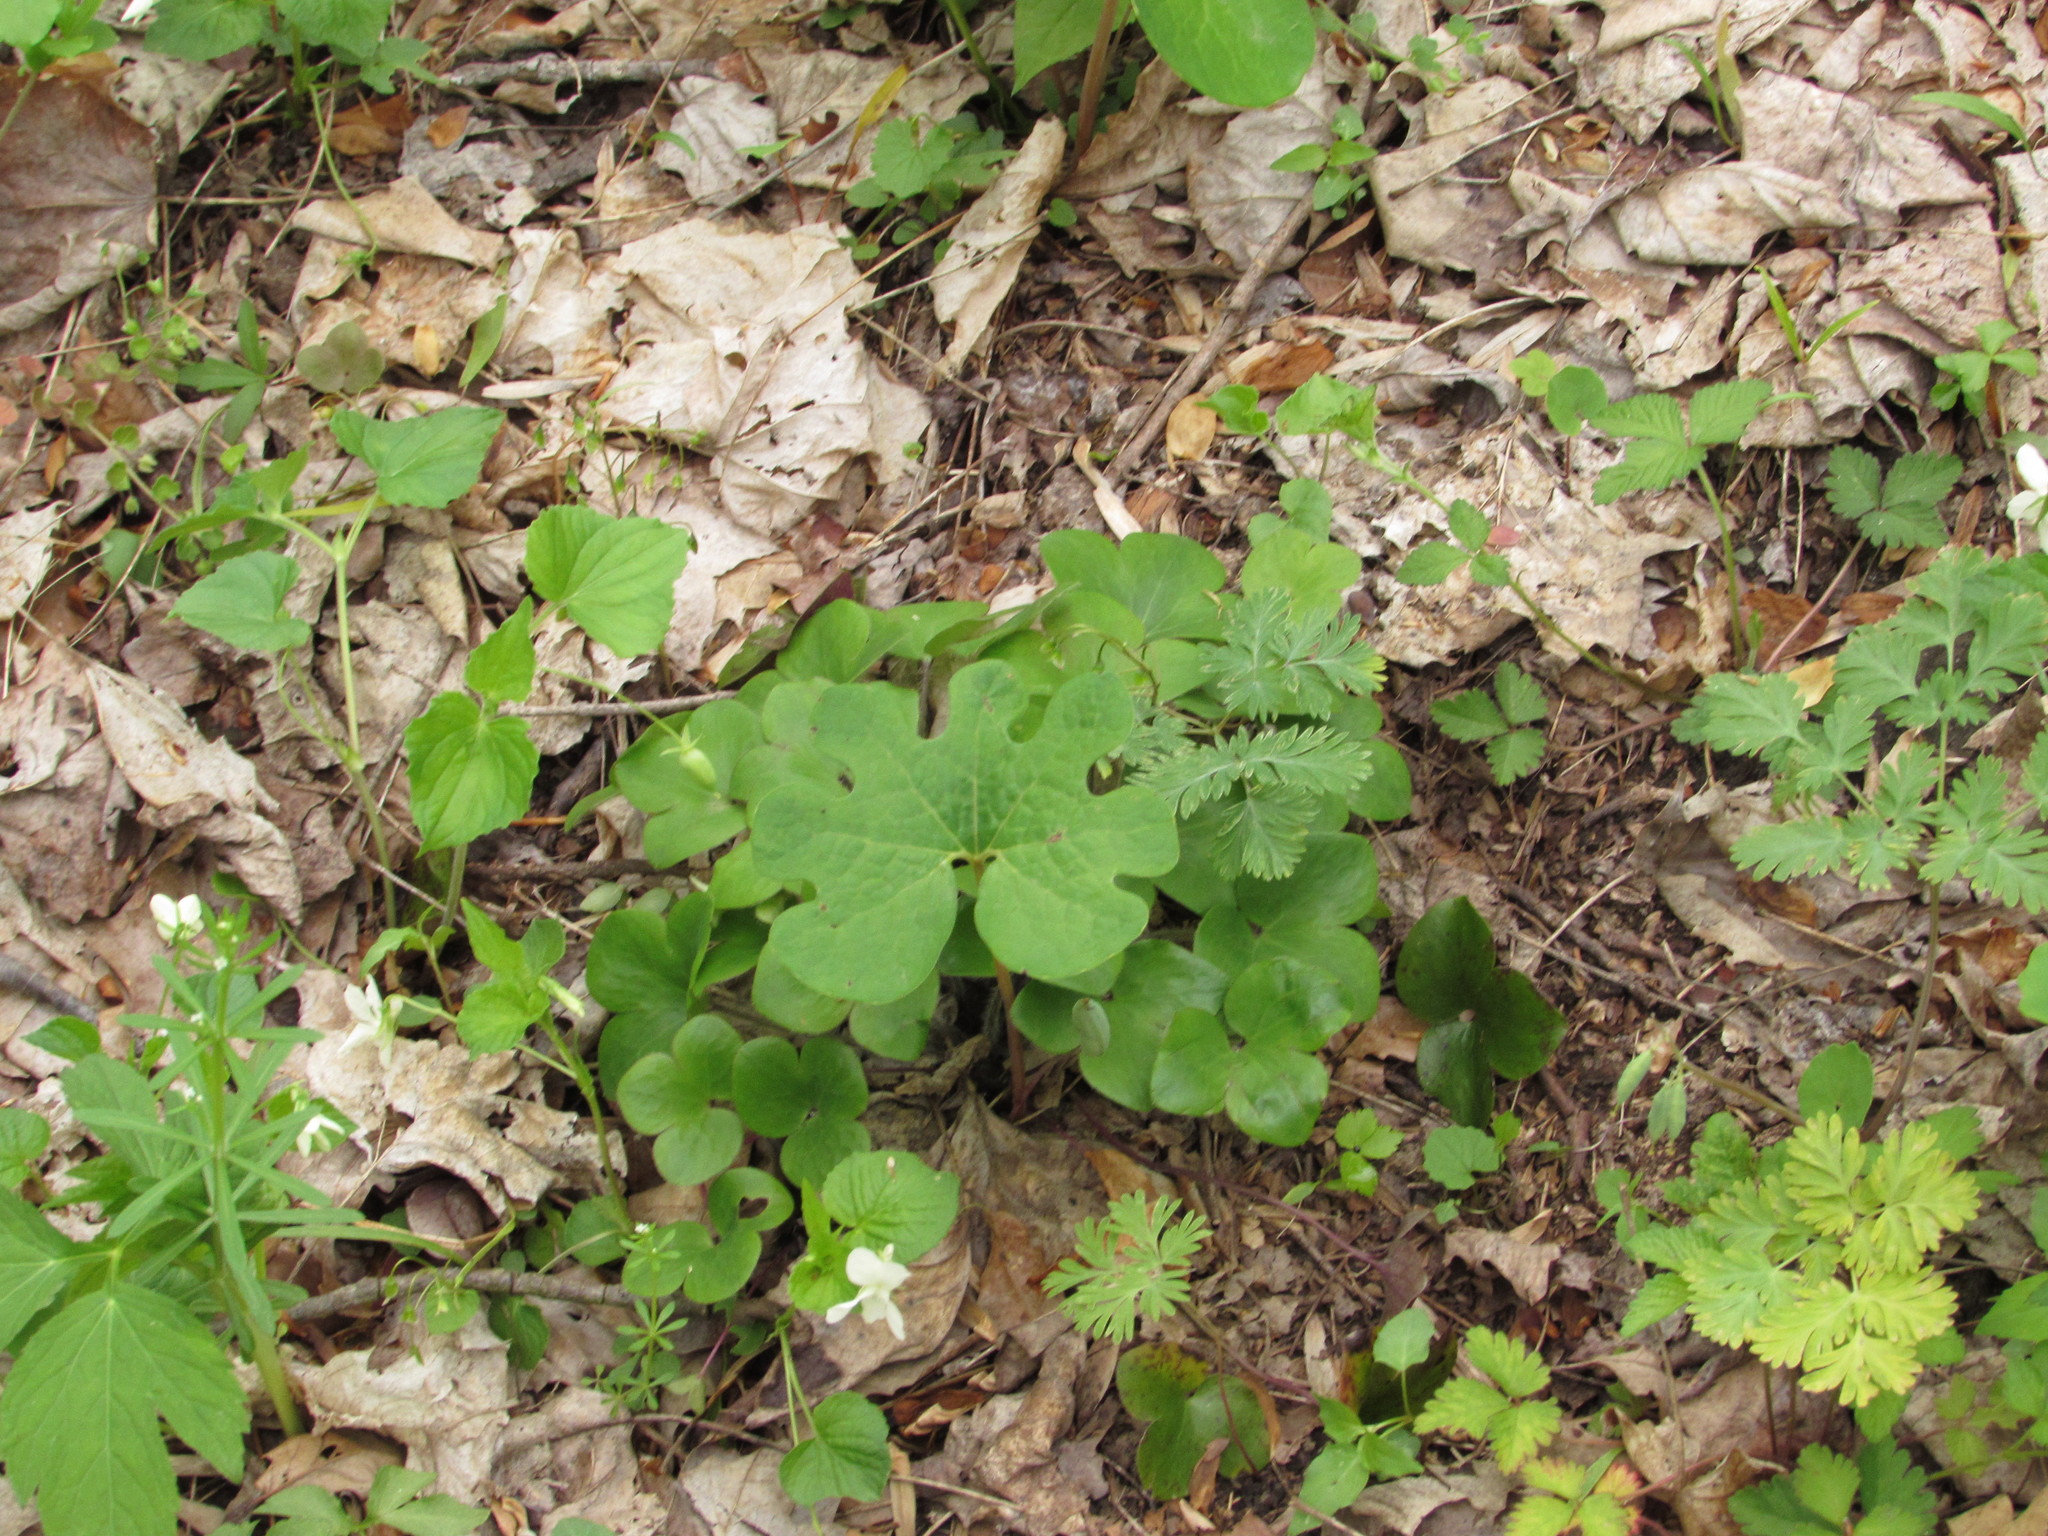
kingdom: Plantae
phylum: Tracheophyta
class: Magnoliopsida
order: Ranunculales
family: Ranunculaceae
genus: Hepatica
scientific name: Hepatica americana
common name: American hepatica
